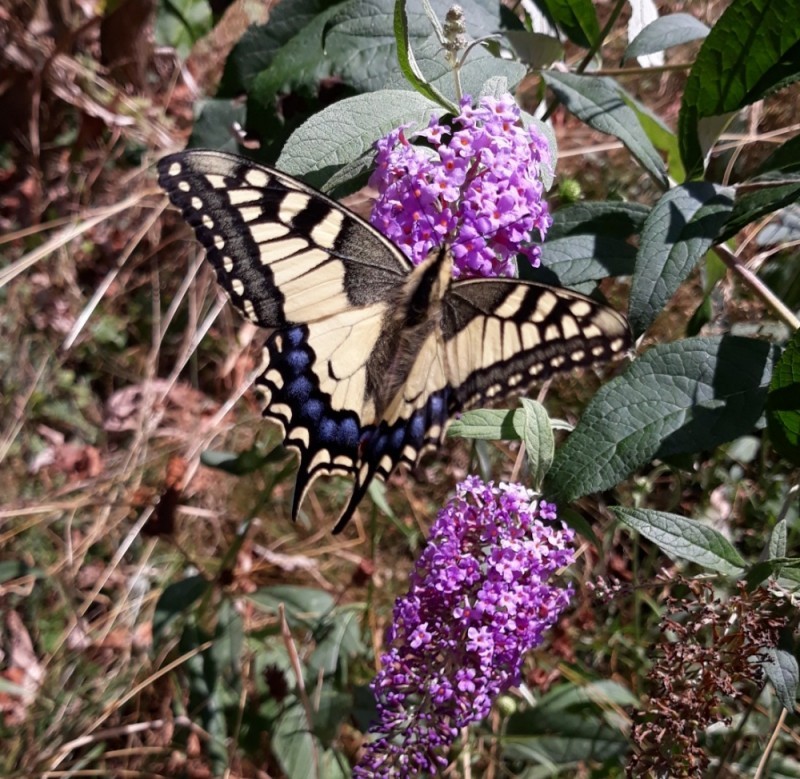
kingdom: Animalia
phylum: Arthropoda
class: Insecta
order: Lepidoptera
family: Papilionidae
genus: Papilio
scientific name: Papilio machaon
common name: Swallowtail
